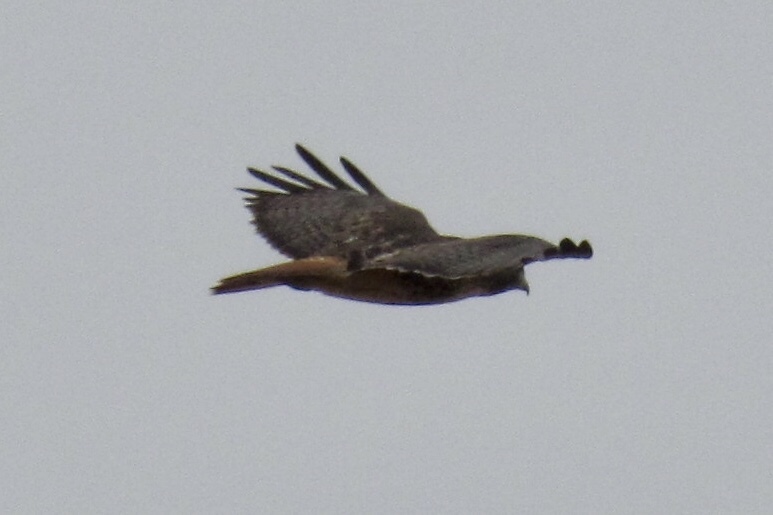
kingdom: Animalia
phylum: Chordata
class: Aves
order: Accipitriformes
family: Accipitridae
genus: Buteo
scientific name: Buteo jamaicensis
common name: Red-tailed hawk
